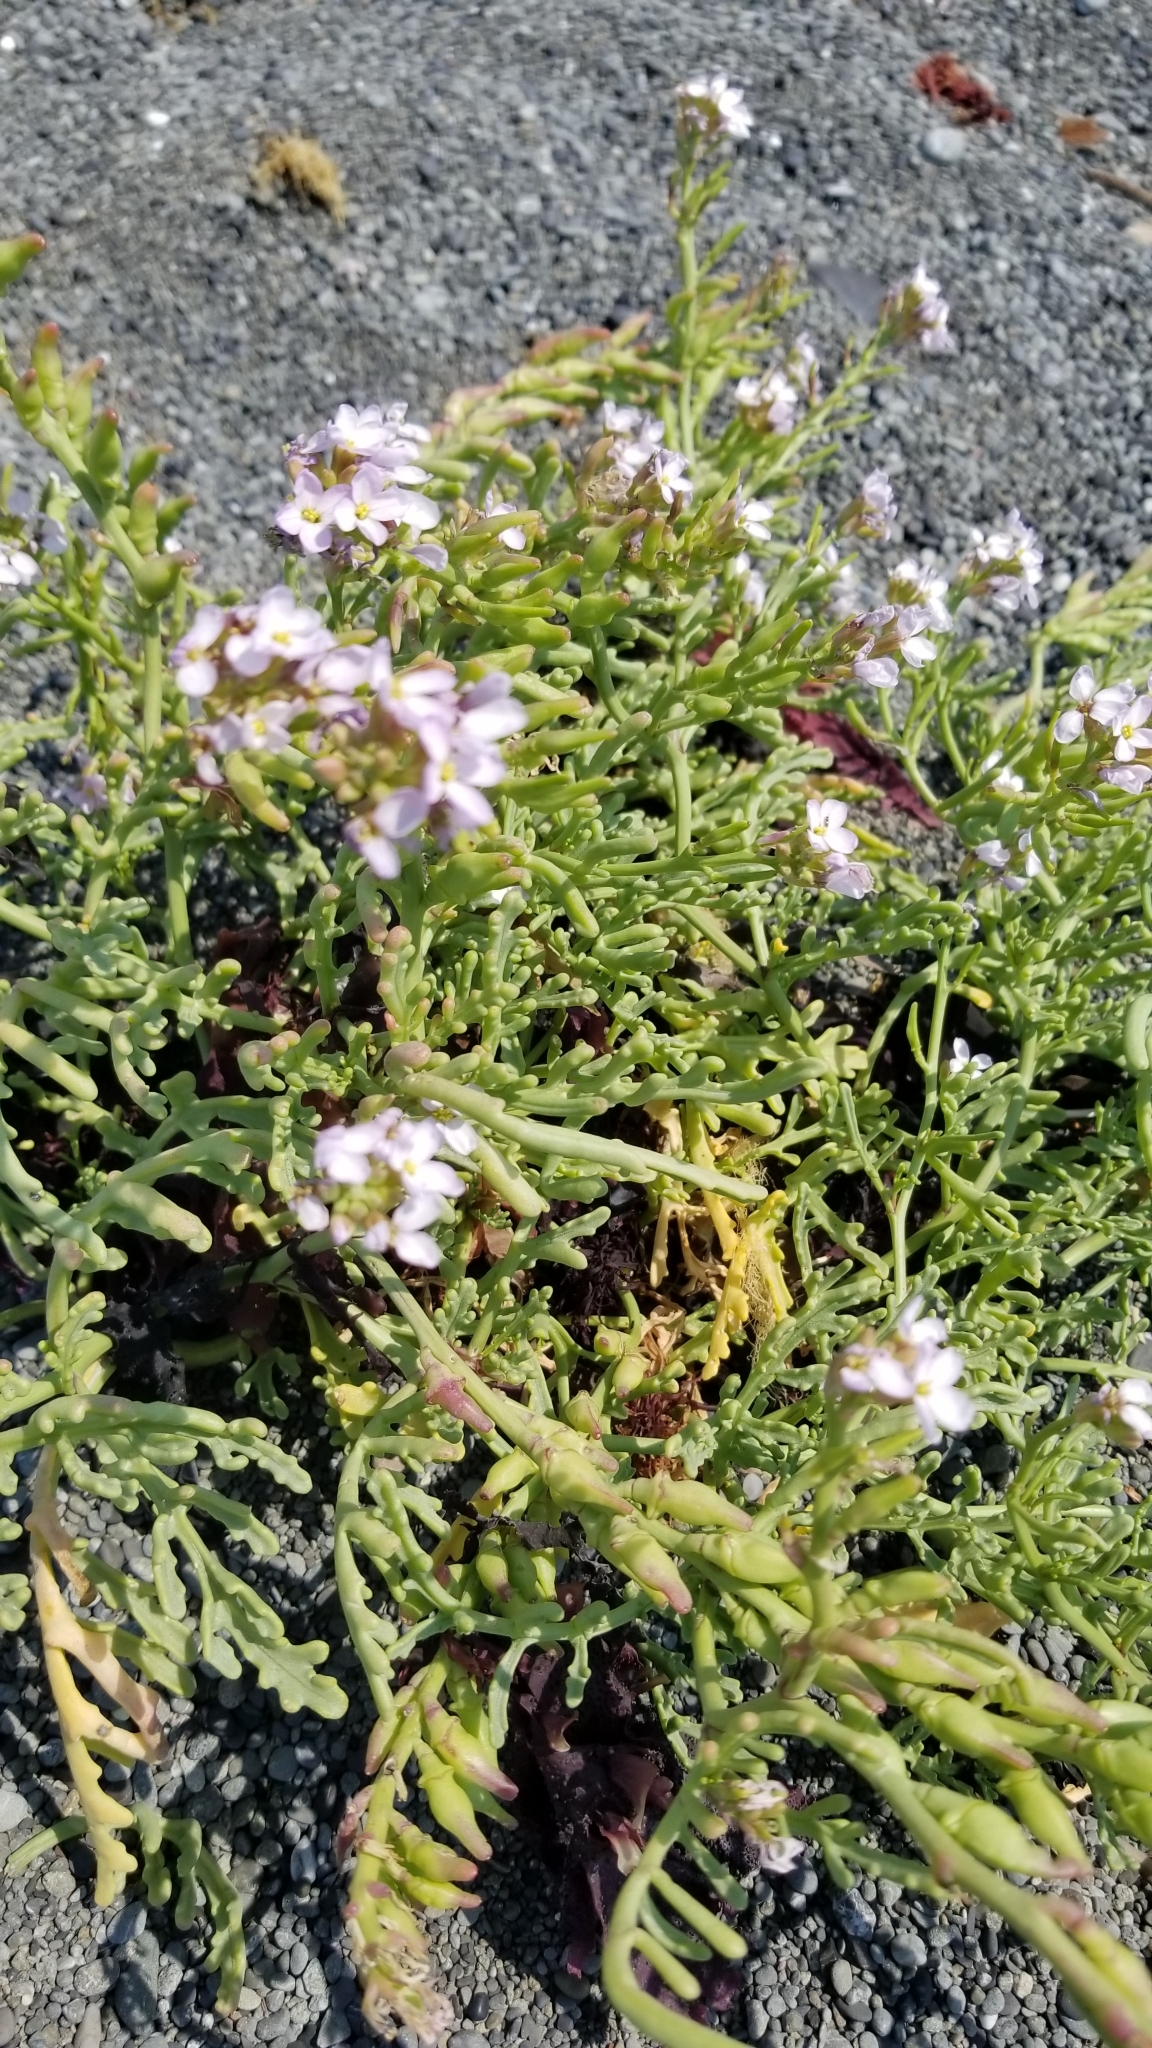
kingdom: Plantae
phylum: Tracheophyta
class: Magnoliopsida
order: Brassicales
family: Brassicaceae
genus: Cakile
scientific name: Cakile maritima
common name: Sea rocket
